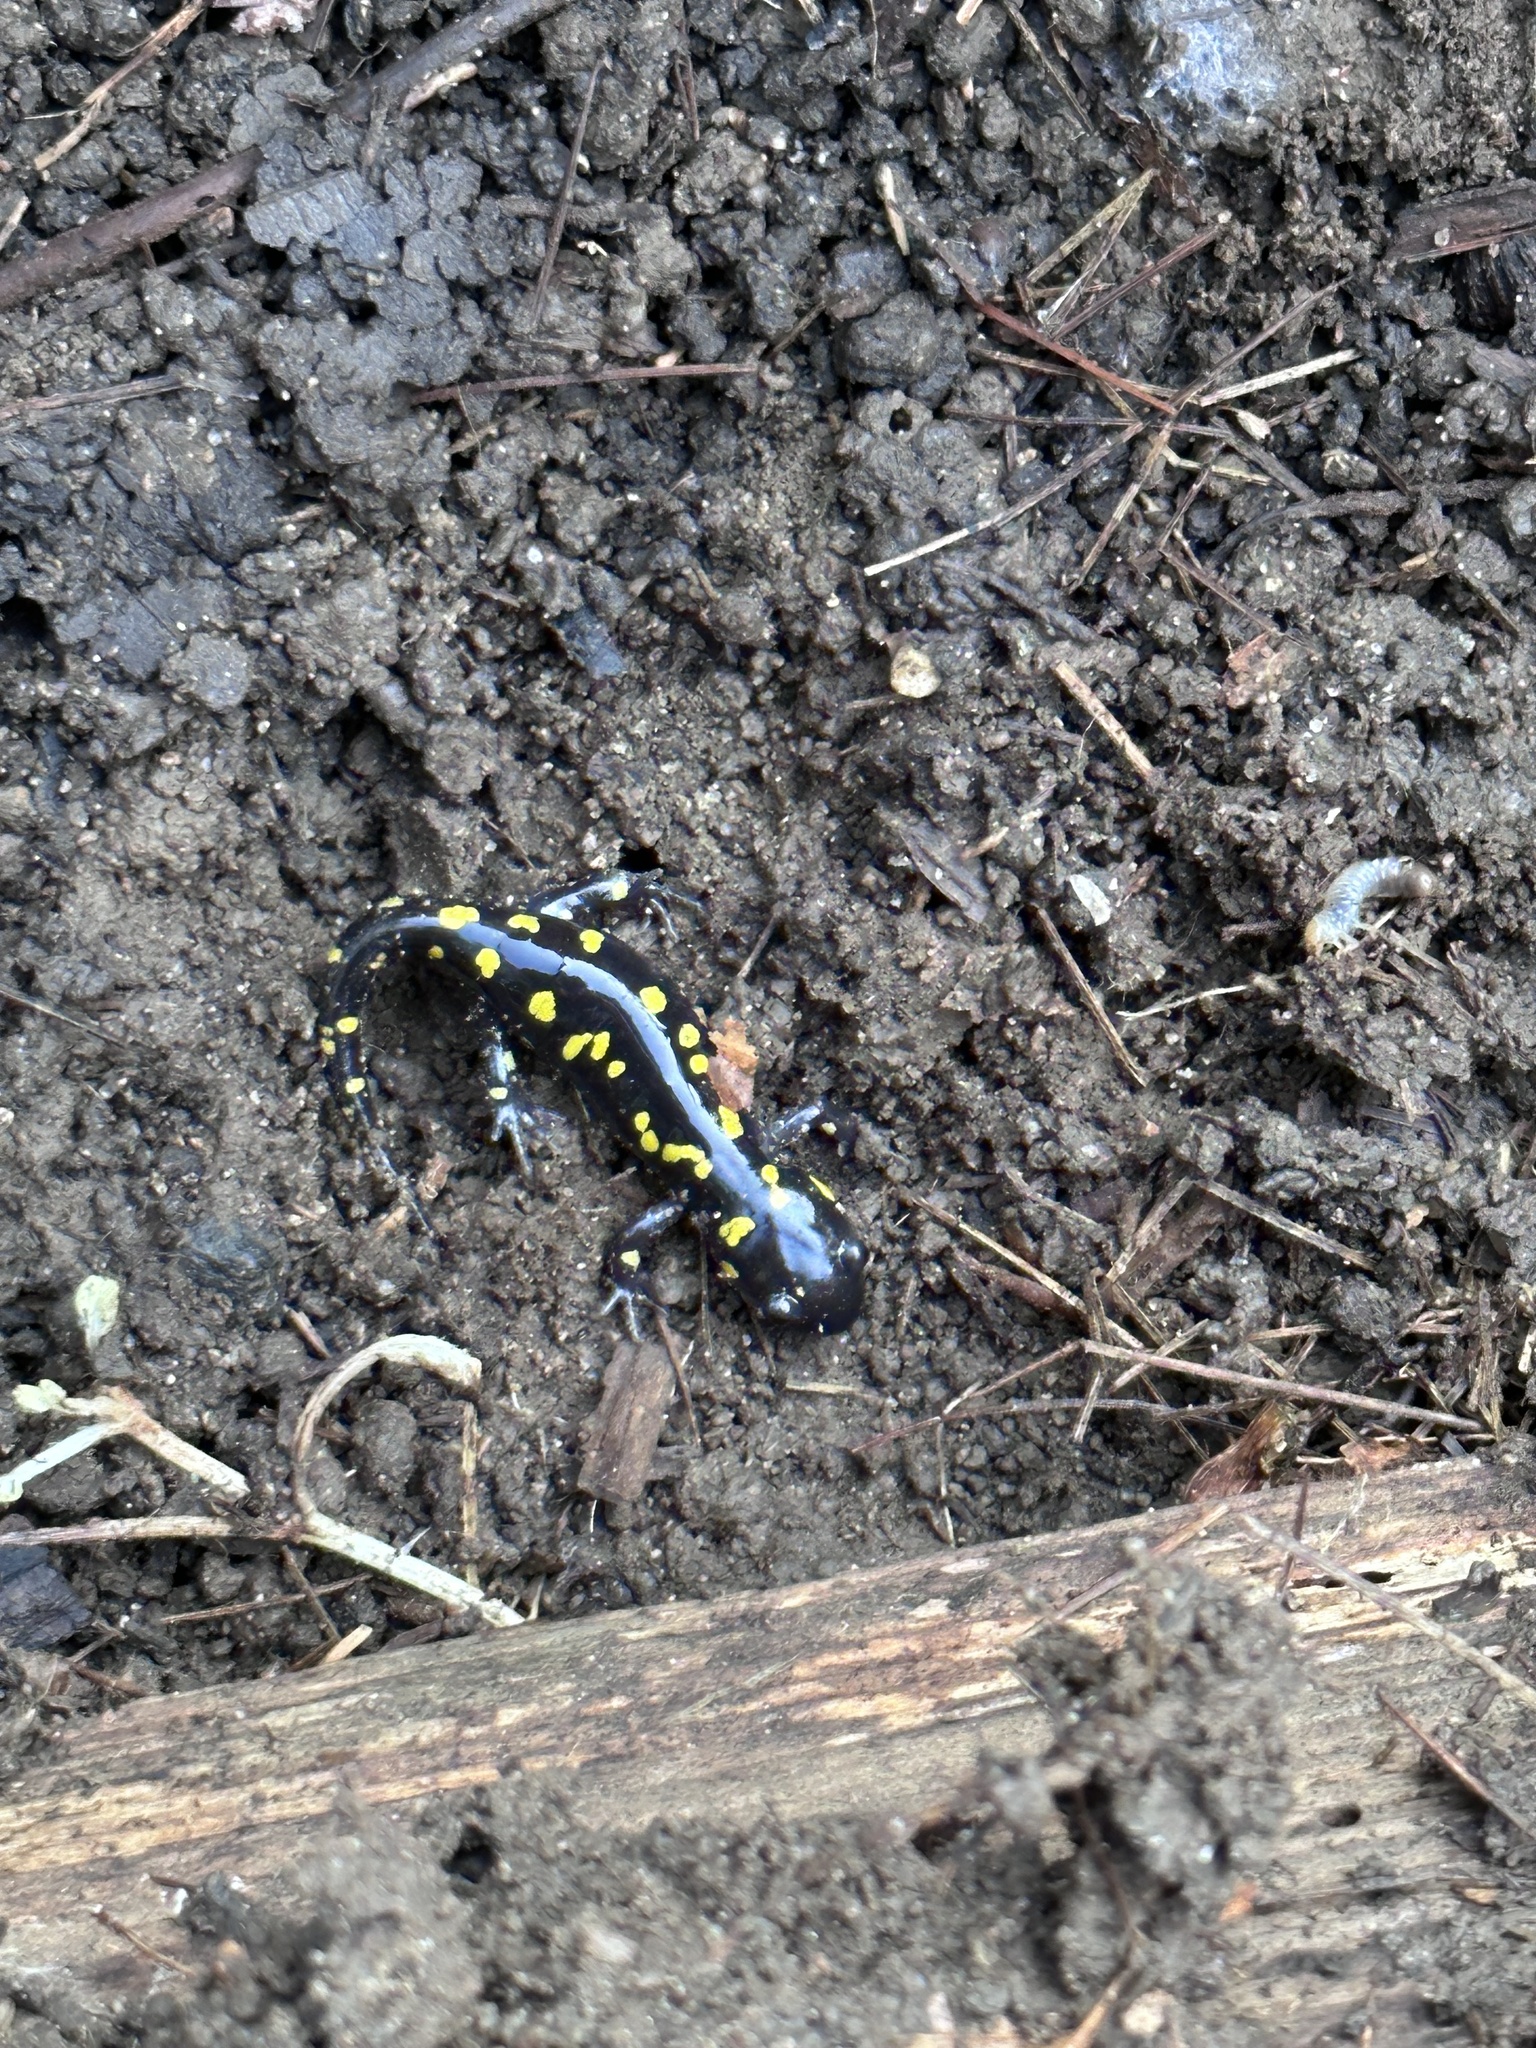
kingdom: Animalia
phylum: Chordata
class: Amphibia
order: Caudata
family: Ambystomatidae
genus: Ambystoma
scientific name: Ambystoma maculatum
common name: Spotted salamander
